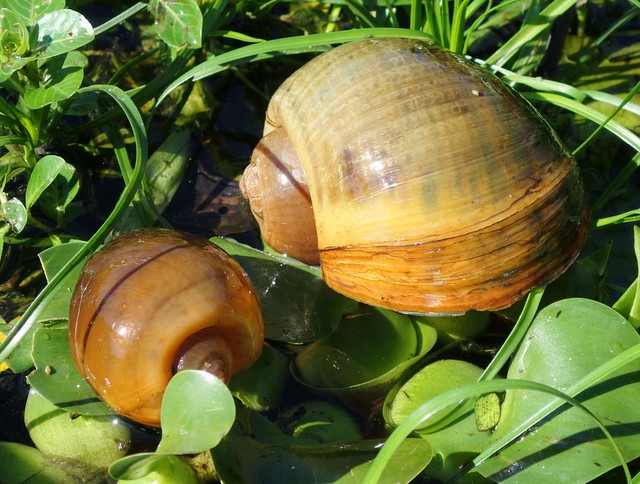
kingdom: Animalia
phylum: Mollusca
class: Gastropoda
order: Architaenioglossa
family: Ampullariidae
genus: Pomacea
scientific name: Pomacea maculata
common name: Giant applesnail
